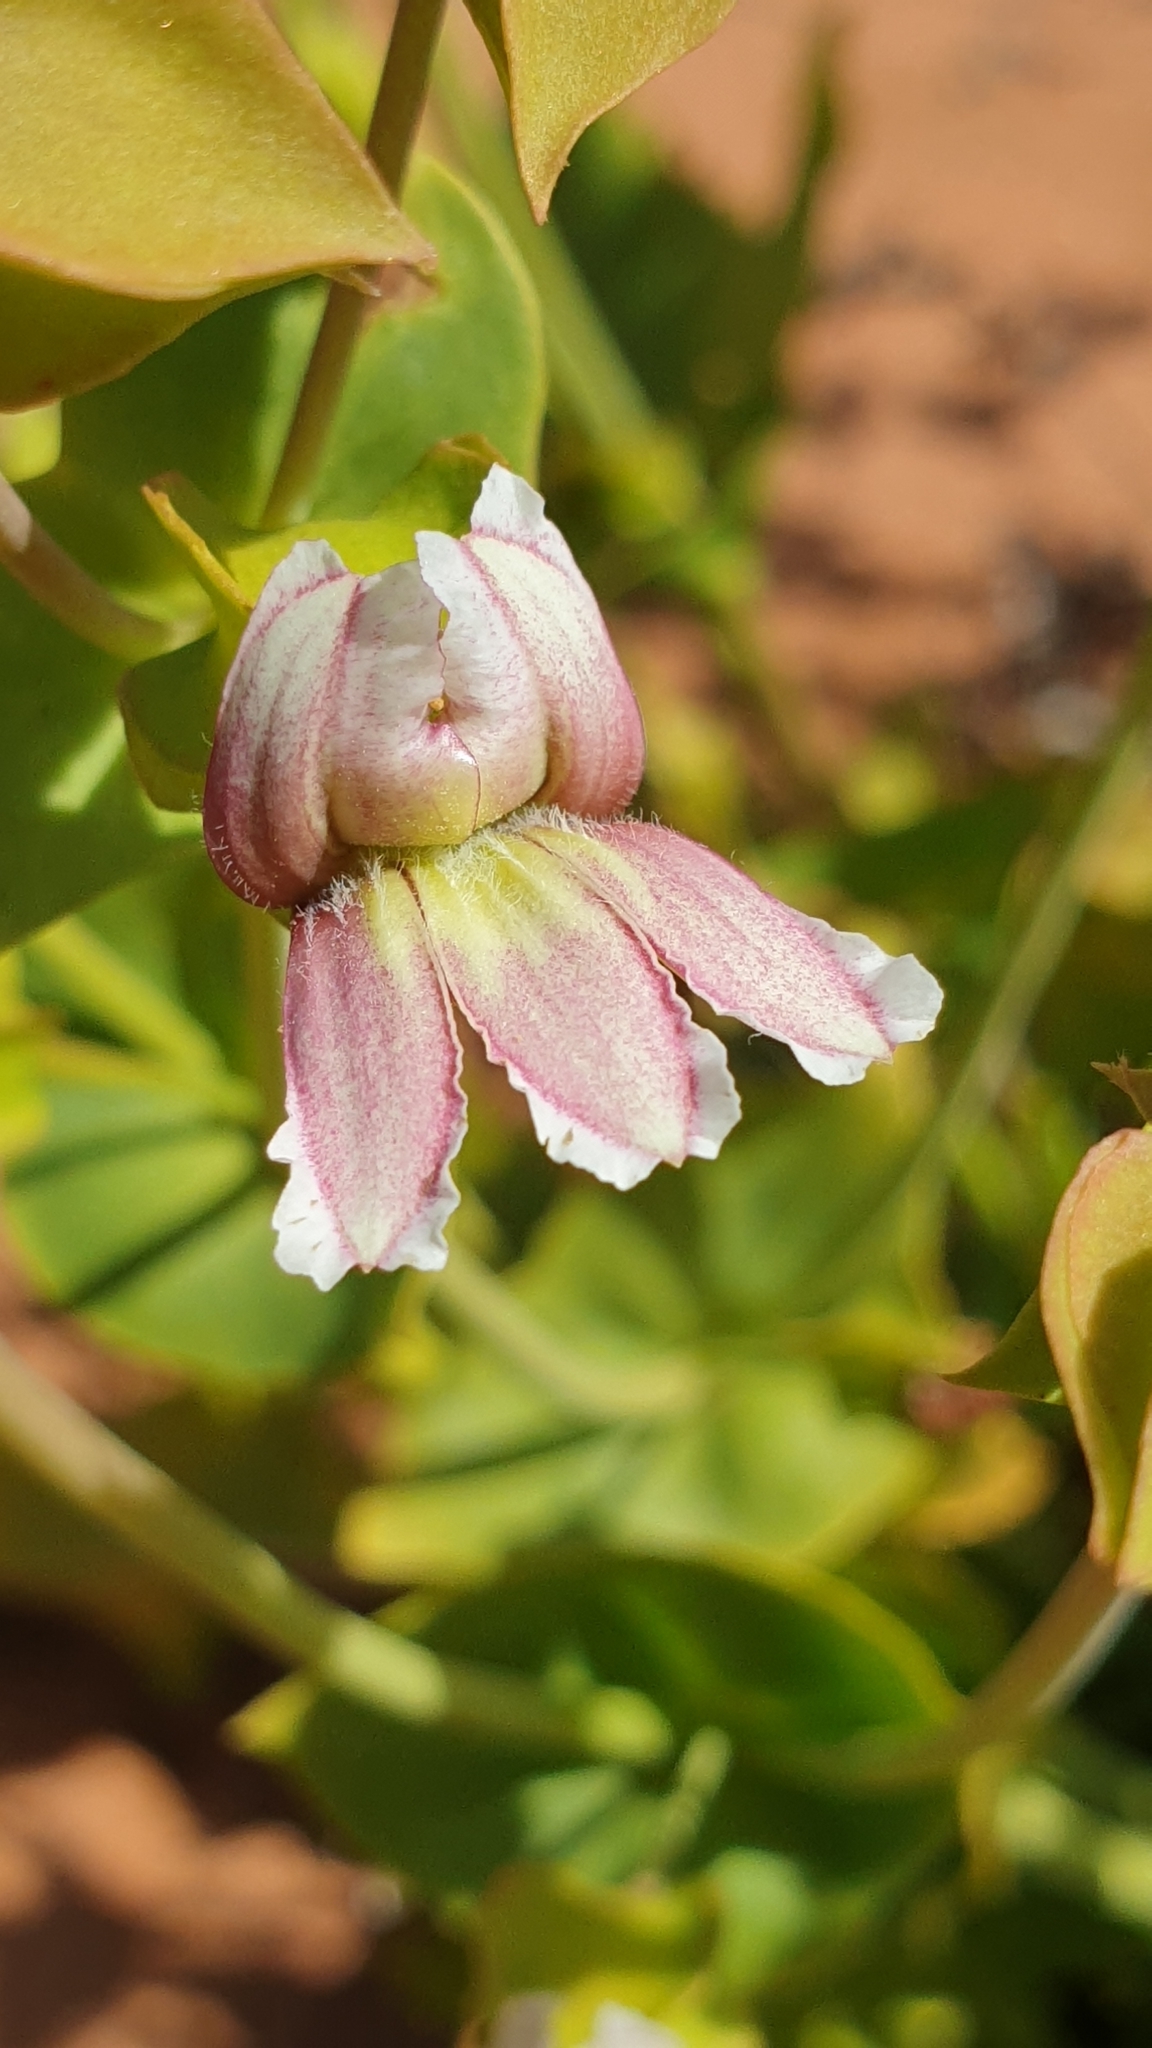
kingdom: Plantae
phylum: Tracheophyta
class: Magnoliopsida
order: Asterales
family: Goodeniaceae
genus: Goodenia
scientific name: Goodenia connata
